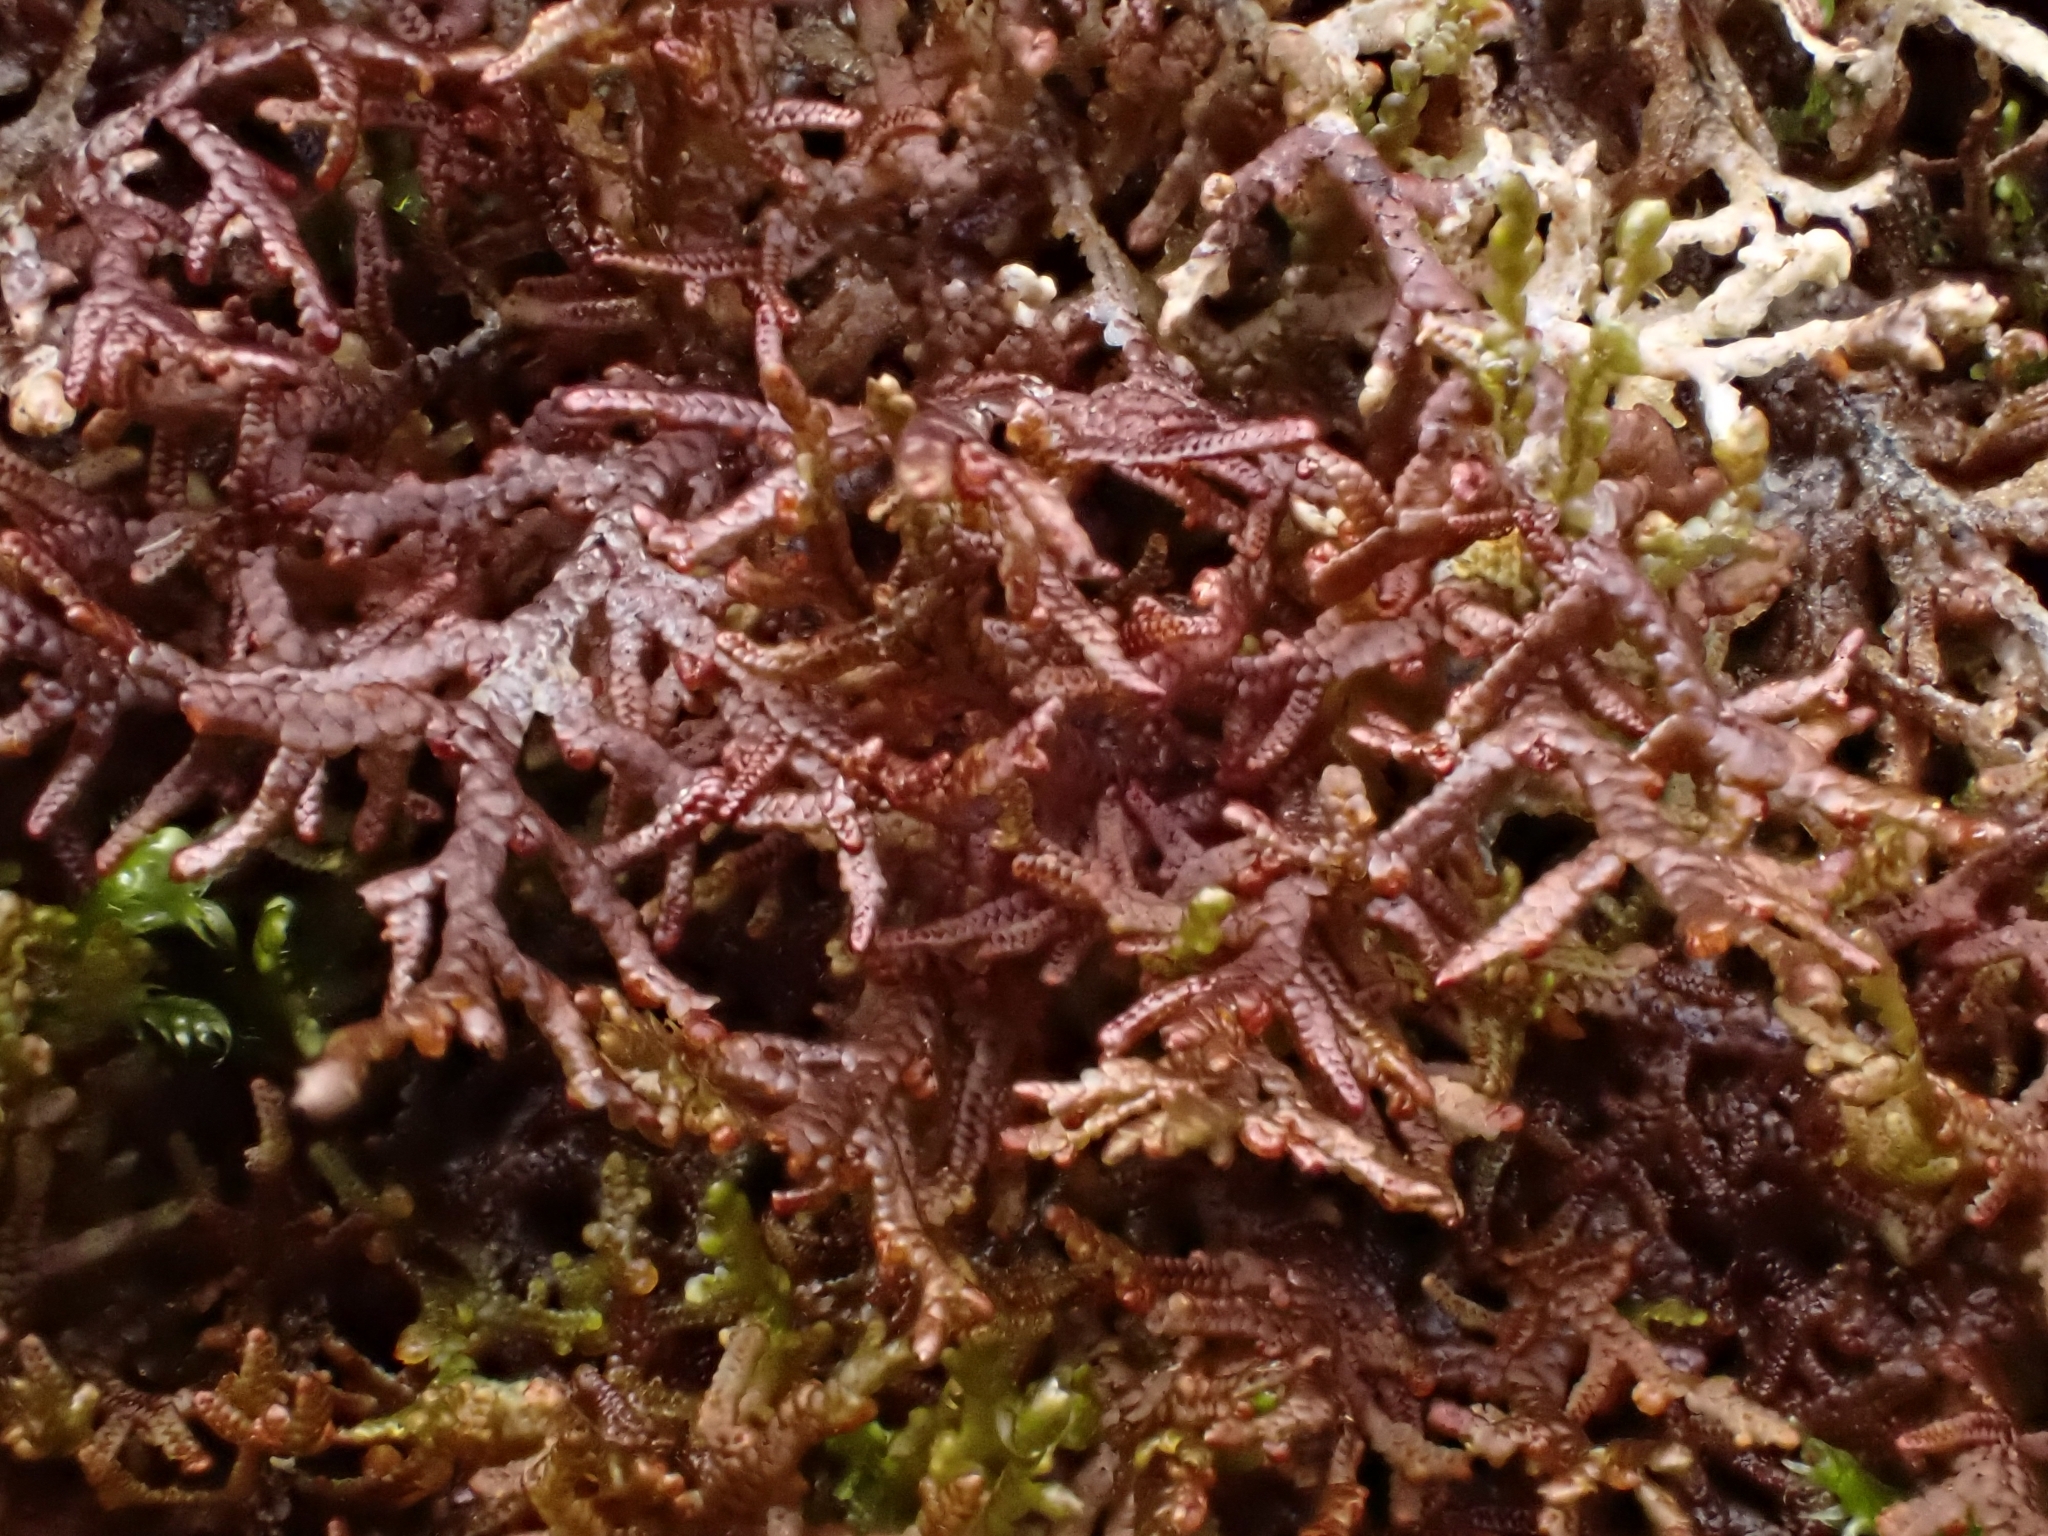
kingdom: Plantae
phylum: Marchantiophyta
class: Jungermanniopsida
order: Porellales
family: Frullaniaceae
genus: Frullania
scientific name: Frullania tamarisci
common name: Tamarisk scalewort
